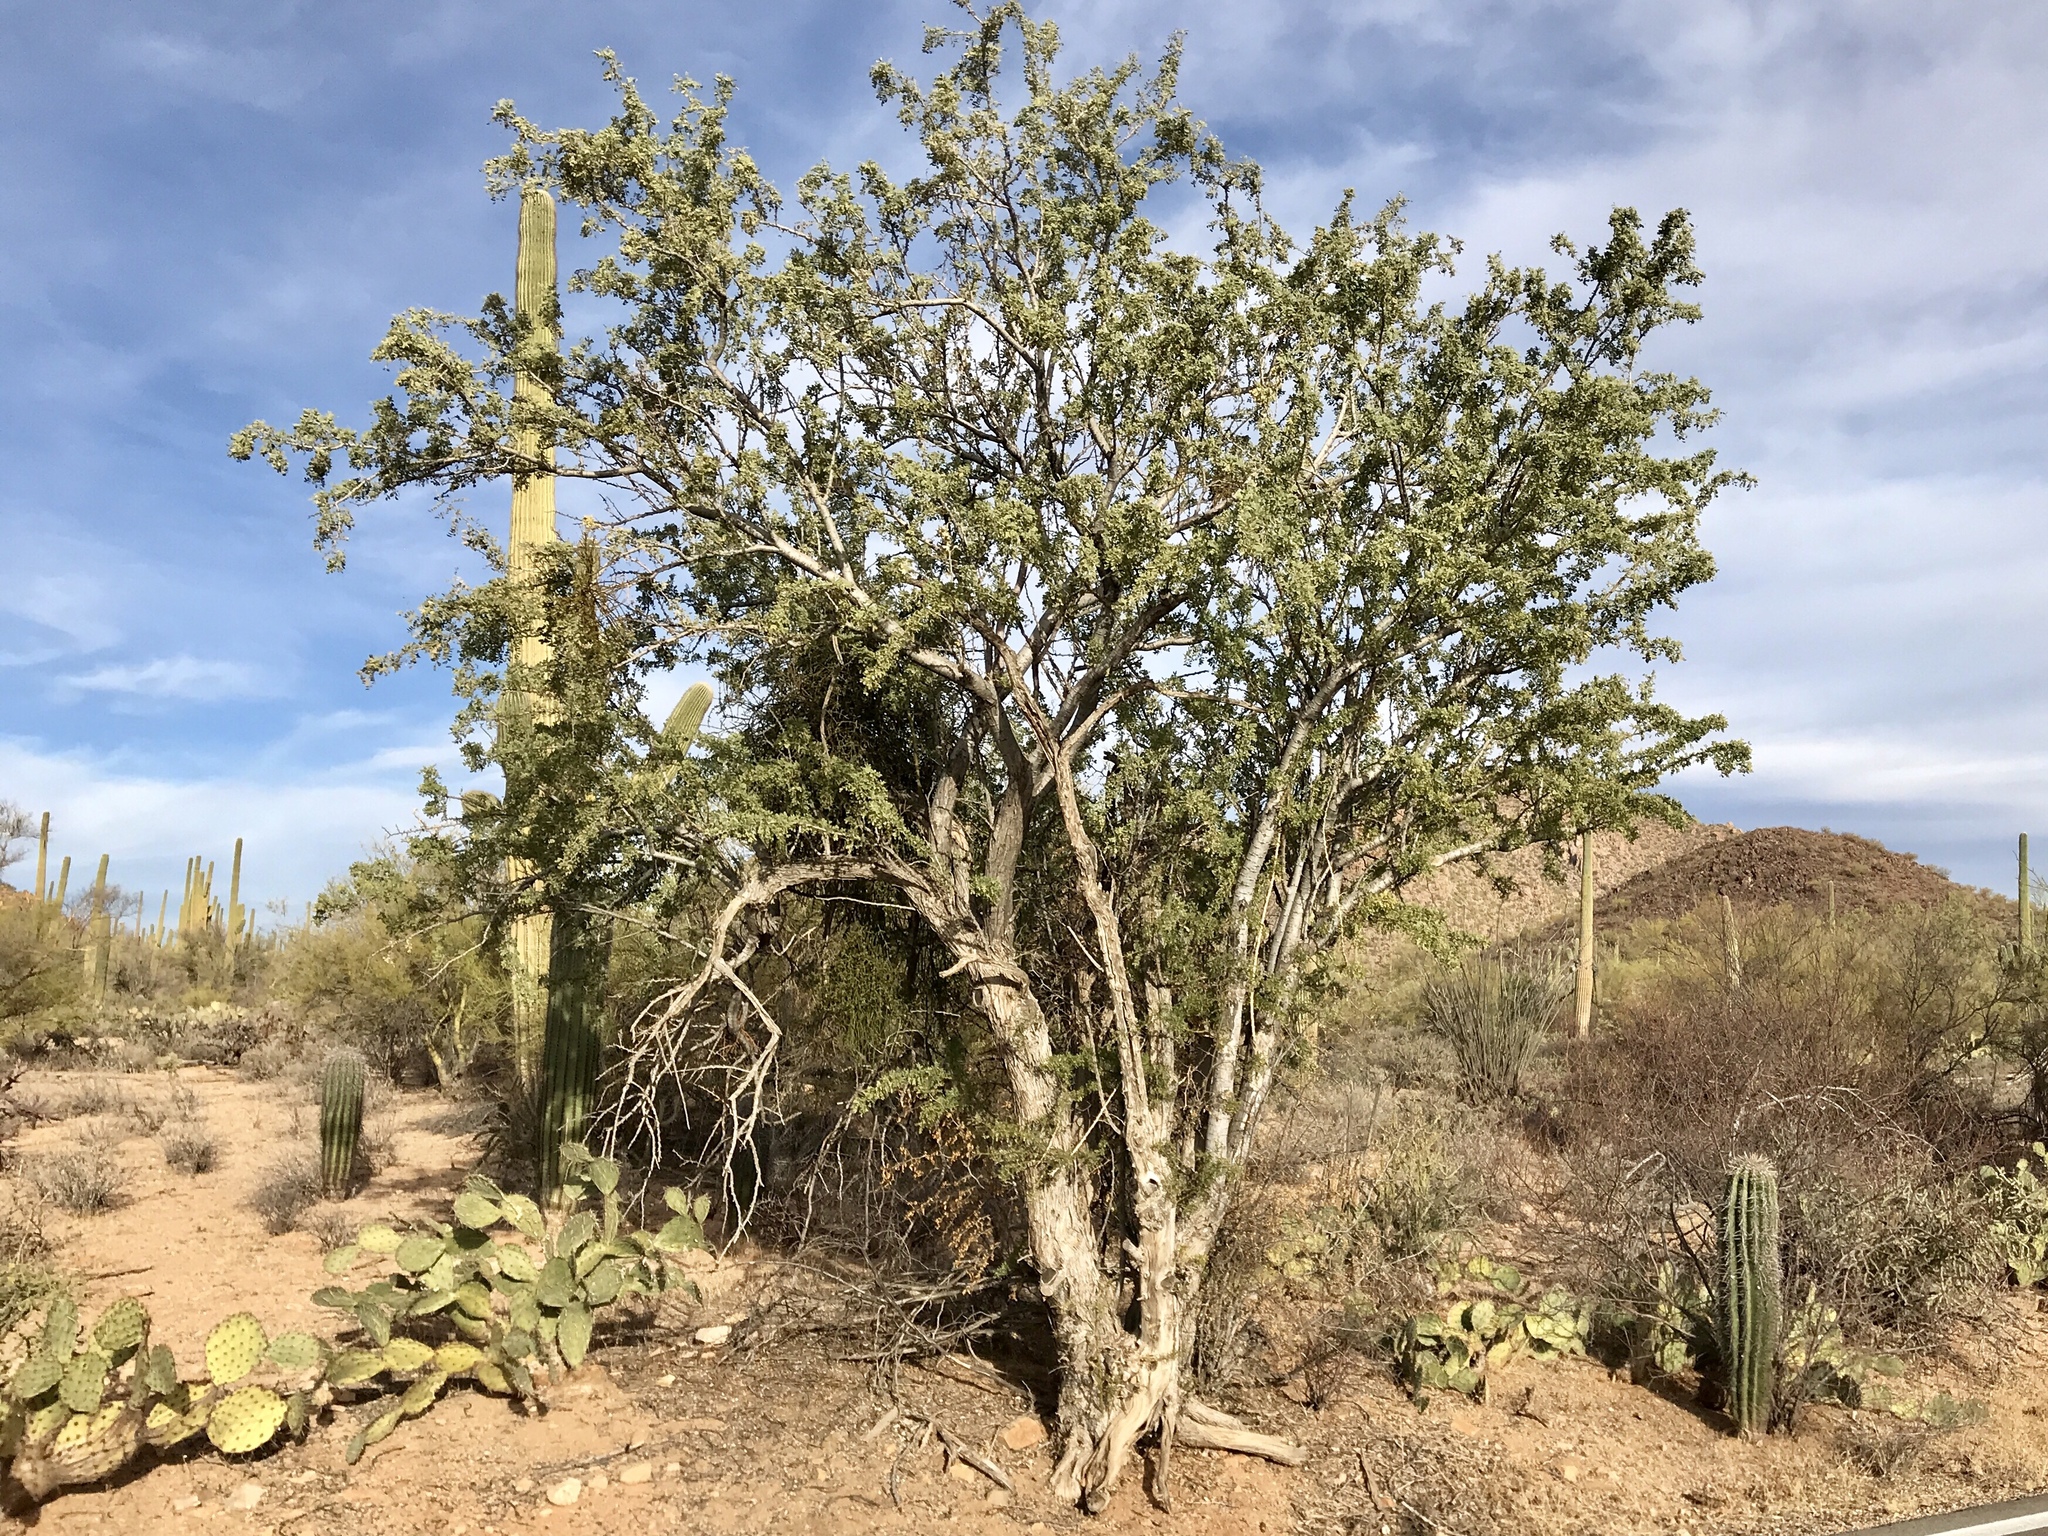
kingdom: Plantae
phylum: Tracheophyta
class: Magnoliopsida
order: Fabales
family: Fabaceae
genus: Olneya
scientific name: Olneya tesota
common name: Desert ironwood
